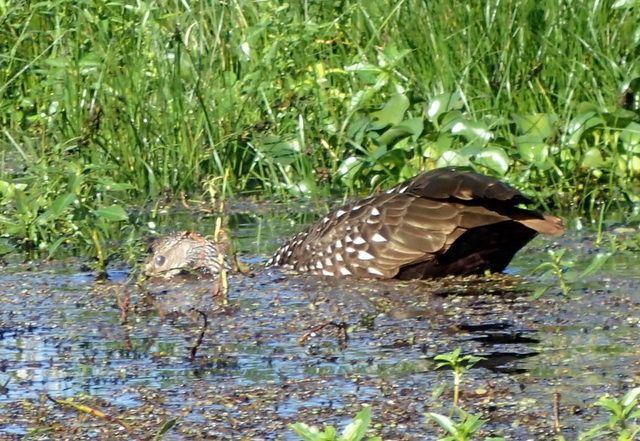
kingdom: Animalia
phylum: Chordata
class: Aves
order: Gruiformes
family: Aramidae
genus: Aramus
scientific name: Aramus guarauna
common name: Limpkin
